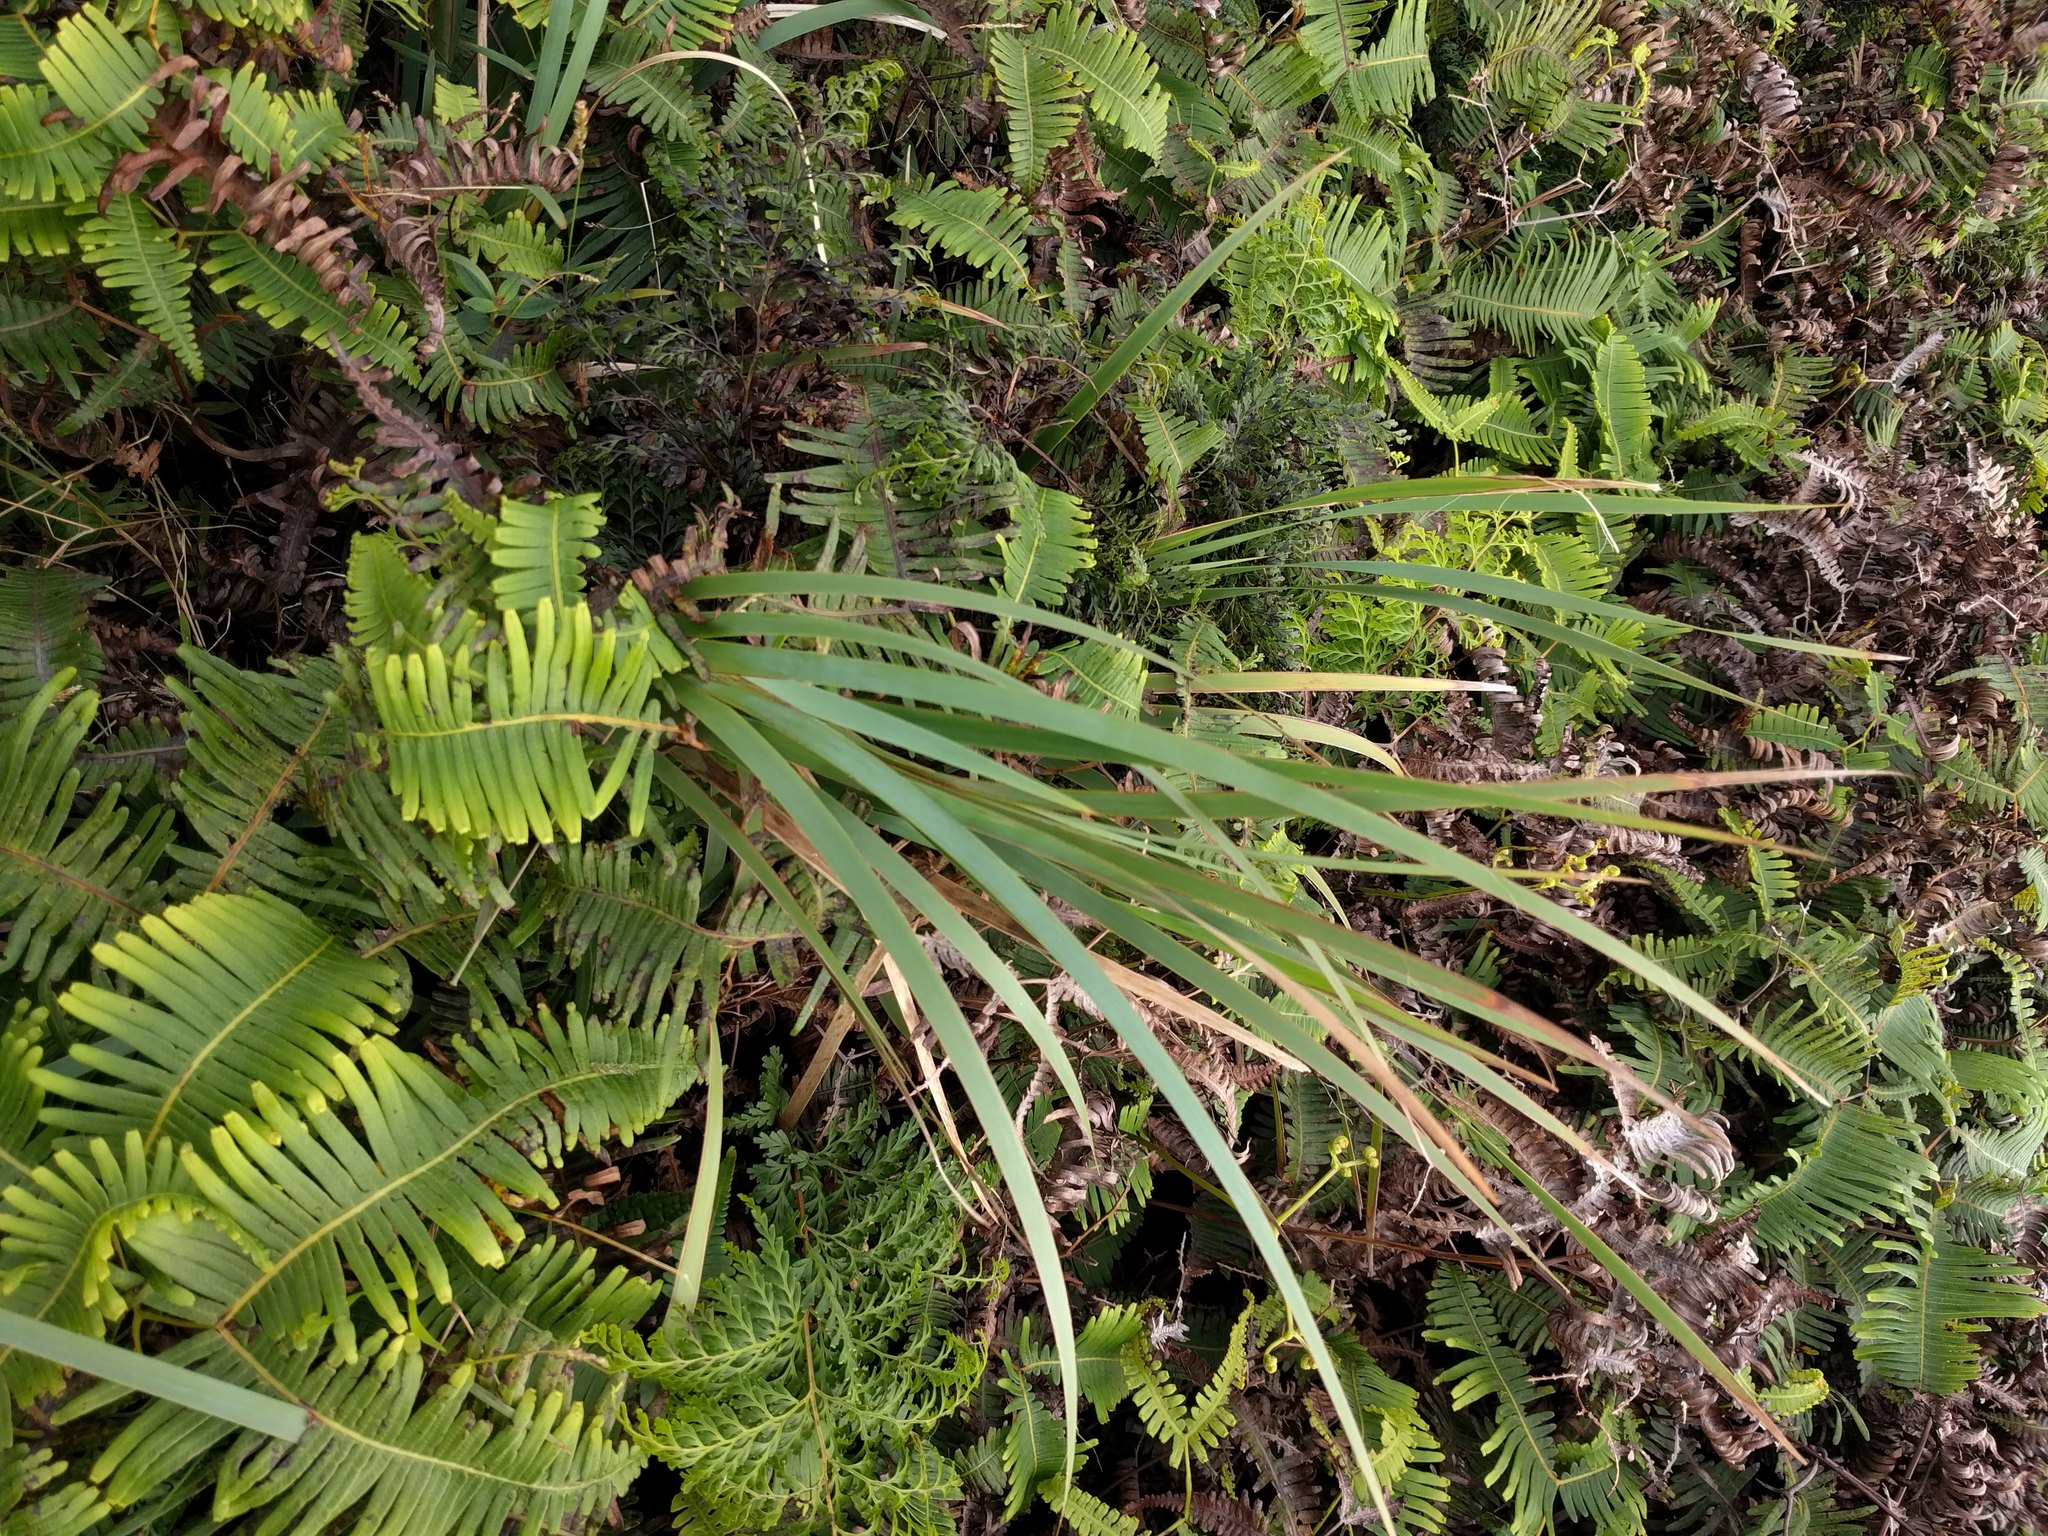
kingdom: Plantae
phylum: Tracheophyta
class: Liliopsida
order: Poales
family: Cyperaceae
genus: Machaerina
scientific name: Machaerina mariscoides
